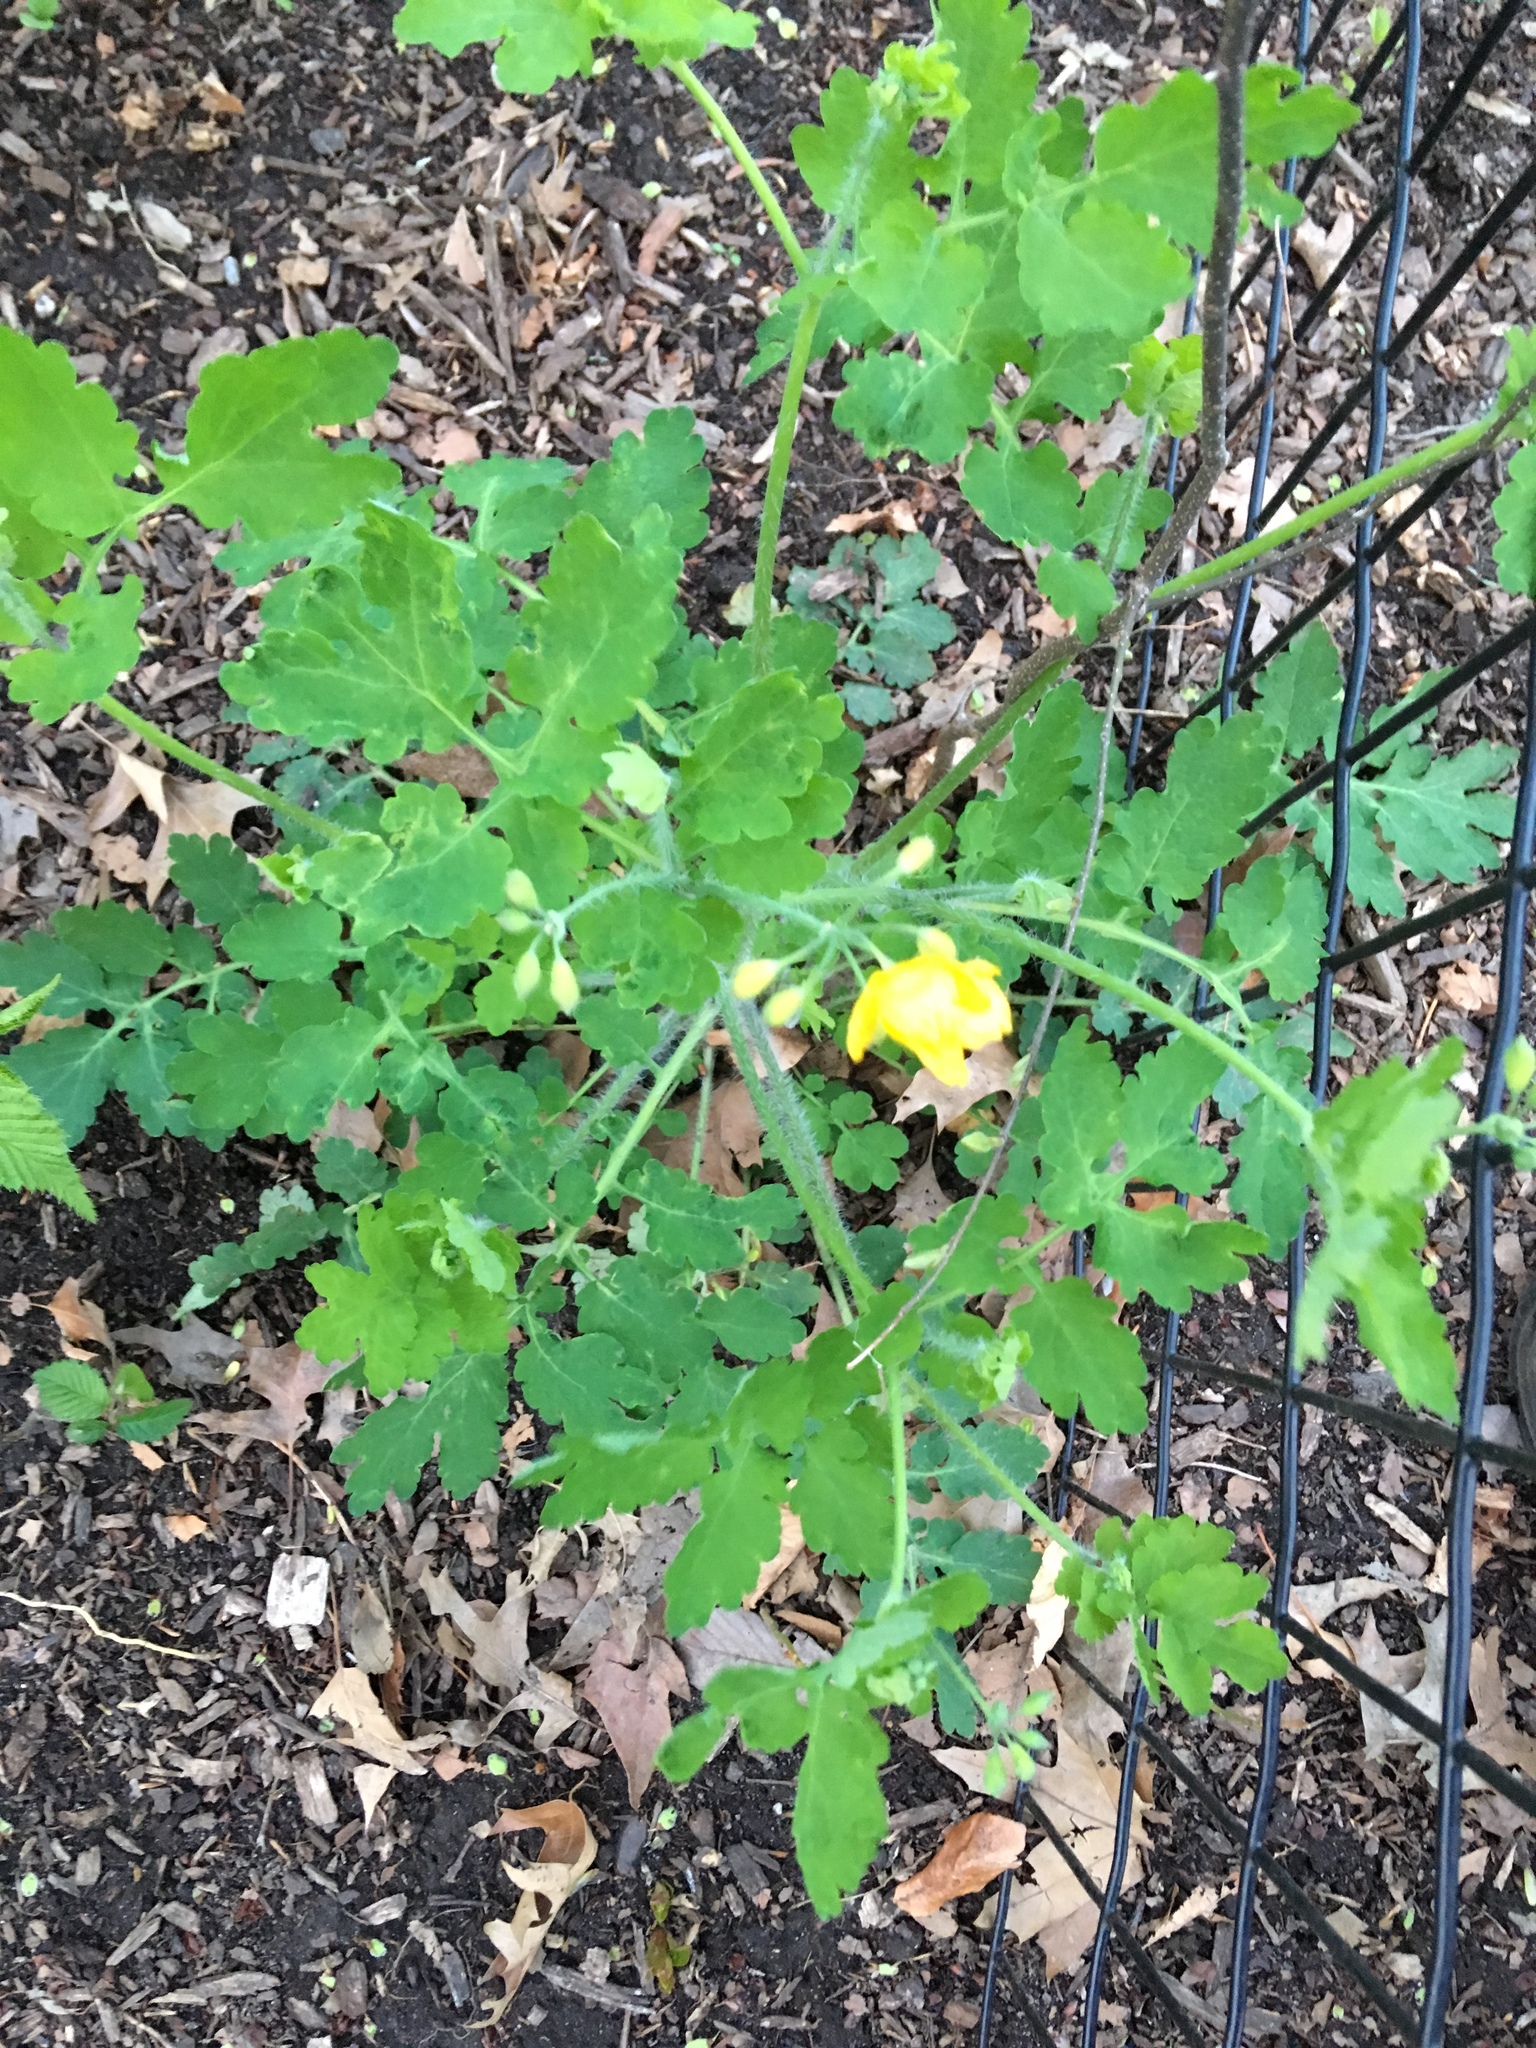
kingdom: Plantae
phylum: Tracheophyta
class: Magnoliopsida
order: Ranunculales
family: Papaveraceae
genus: Chelidonium
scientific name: Chelidonium majus
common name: Greater celandine
